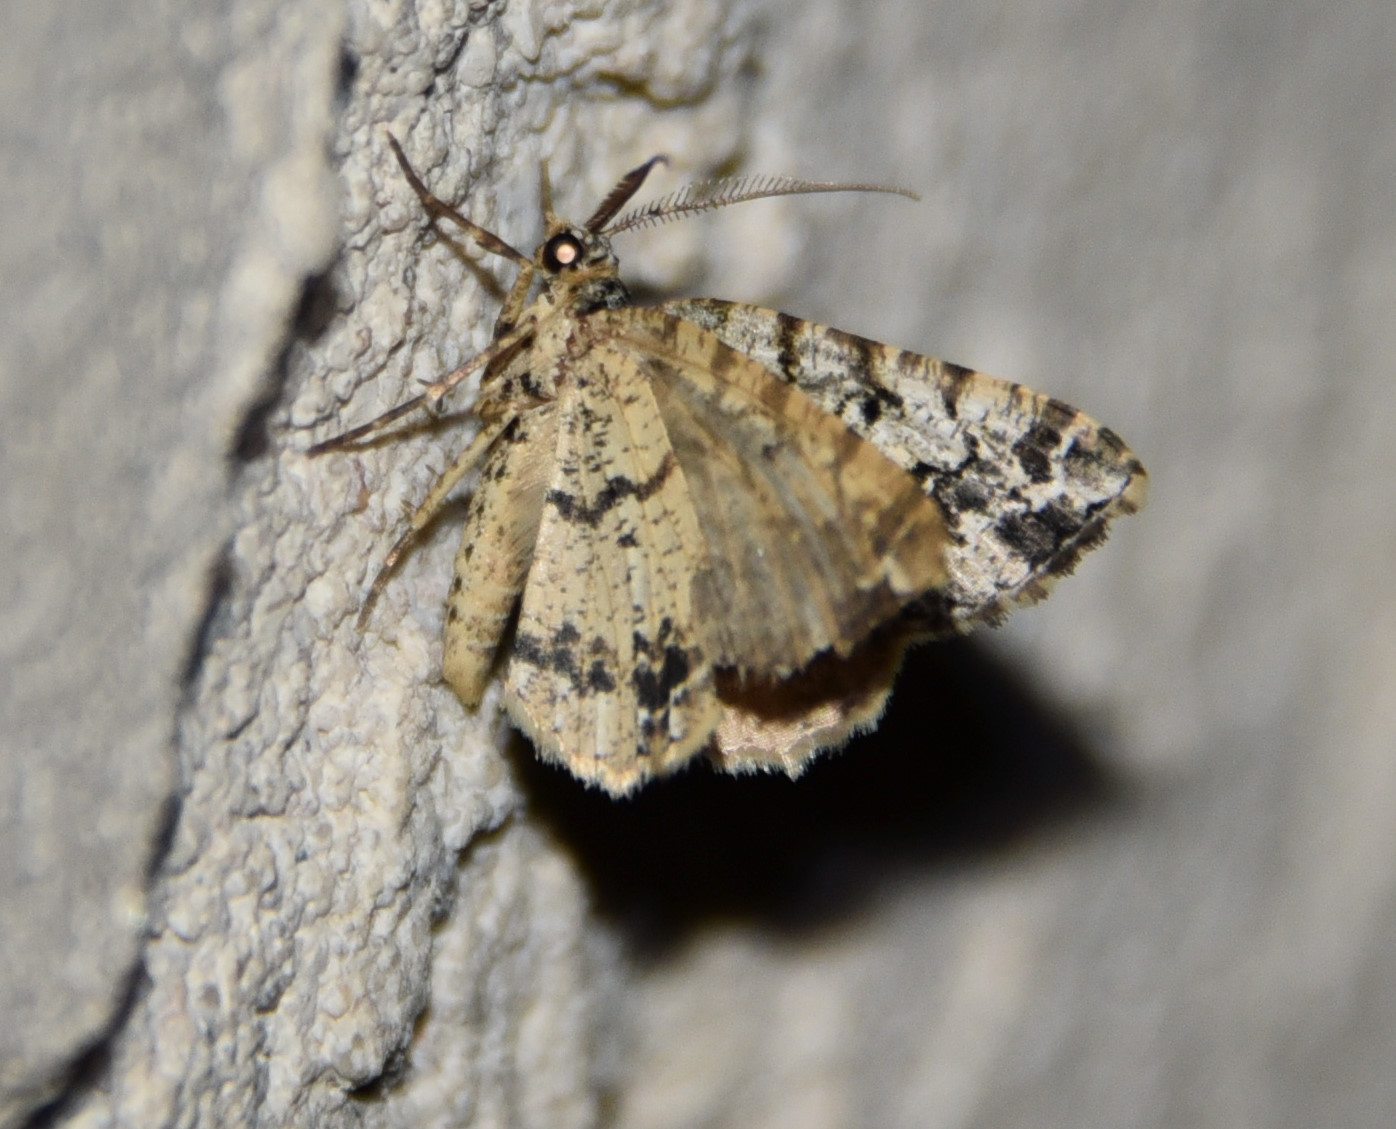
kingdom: Animalia
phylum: Arthropoda
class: Insecta
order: Lepidoptera
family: Geometridae
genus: Macaria
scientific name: Macaria graphidaria
